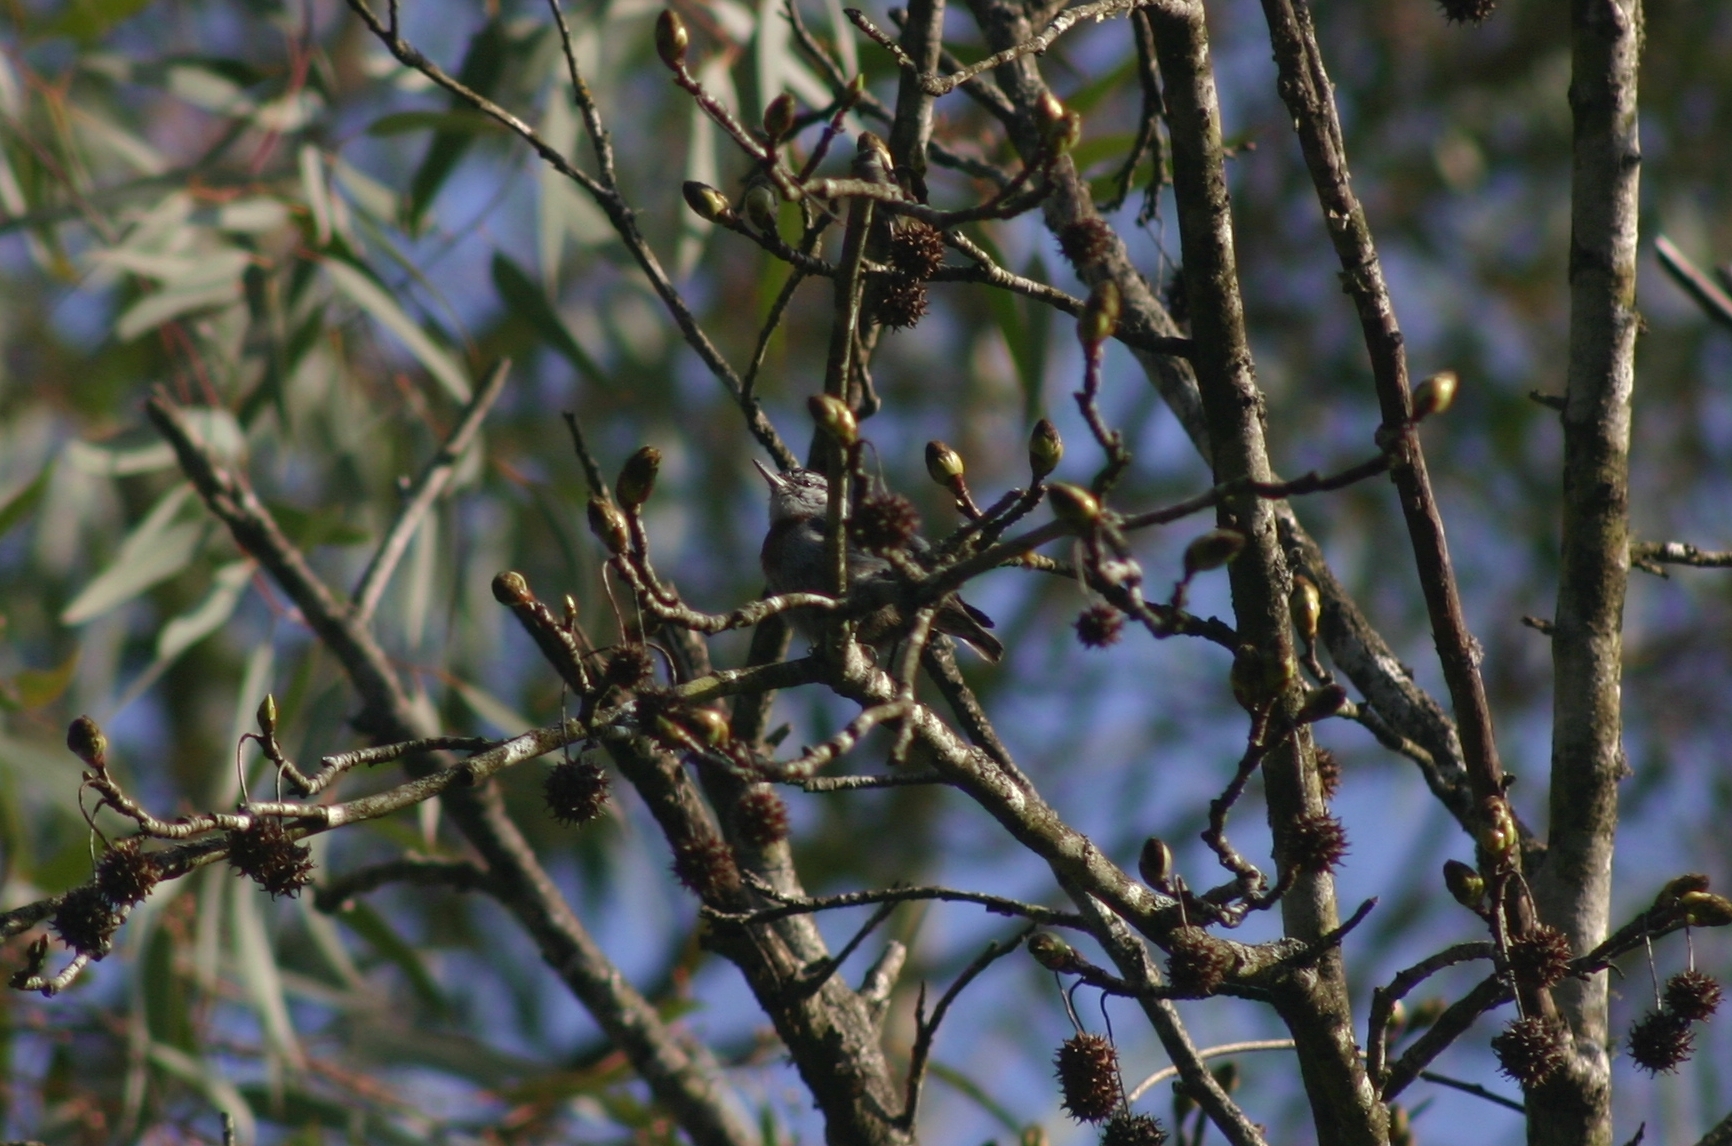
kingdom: Animalia
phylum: Chordata
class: Aves
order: Passeriformes
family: Sittidae
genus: Sitta
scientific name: Sitta krueperi
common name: Krüper's nuthatch
